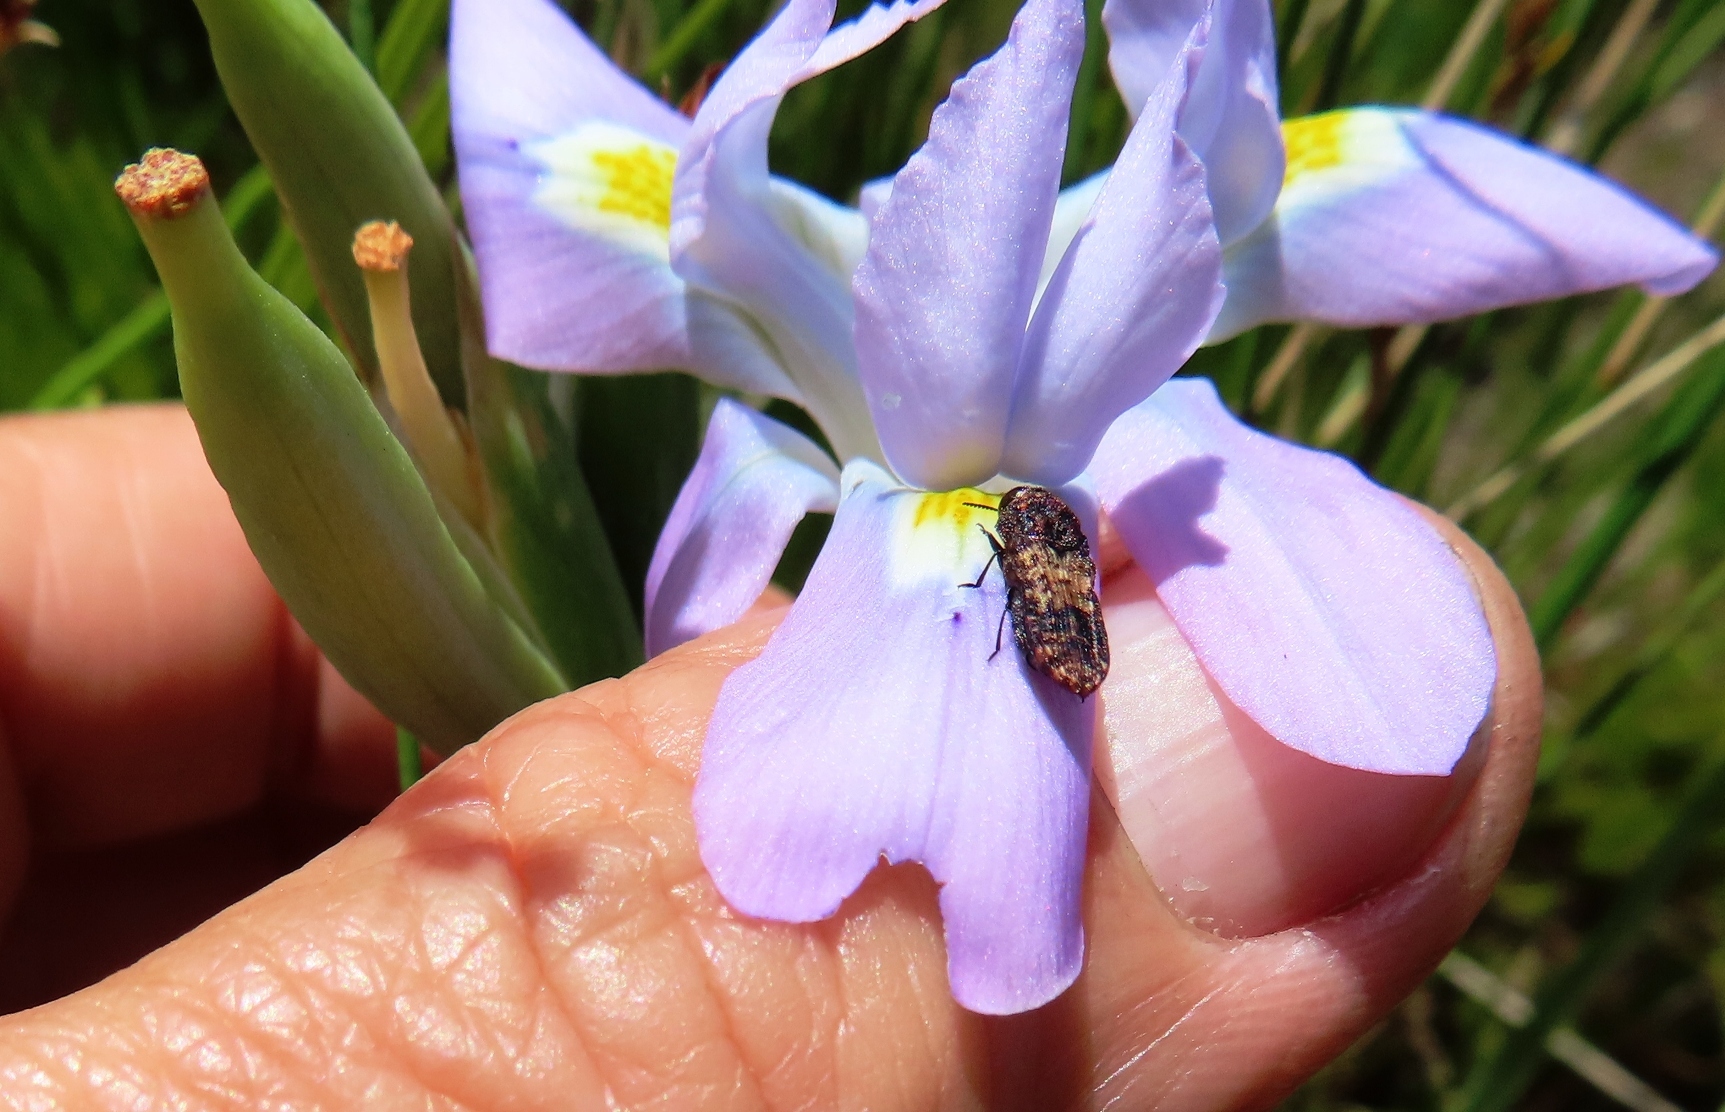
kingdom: Plantae
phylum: Tracheophyta
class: Liliopsida
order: Asparagales
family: Iridaceae
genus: Moraea
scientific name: Moraea fugax
